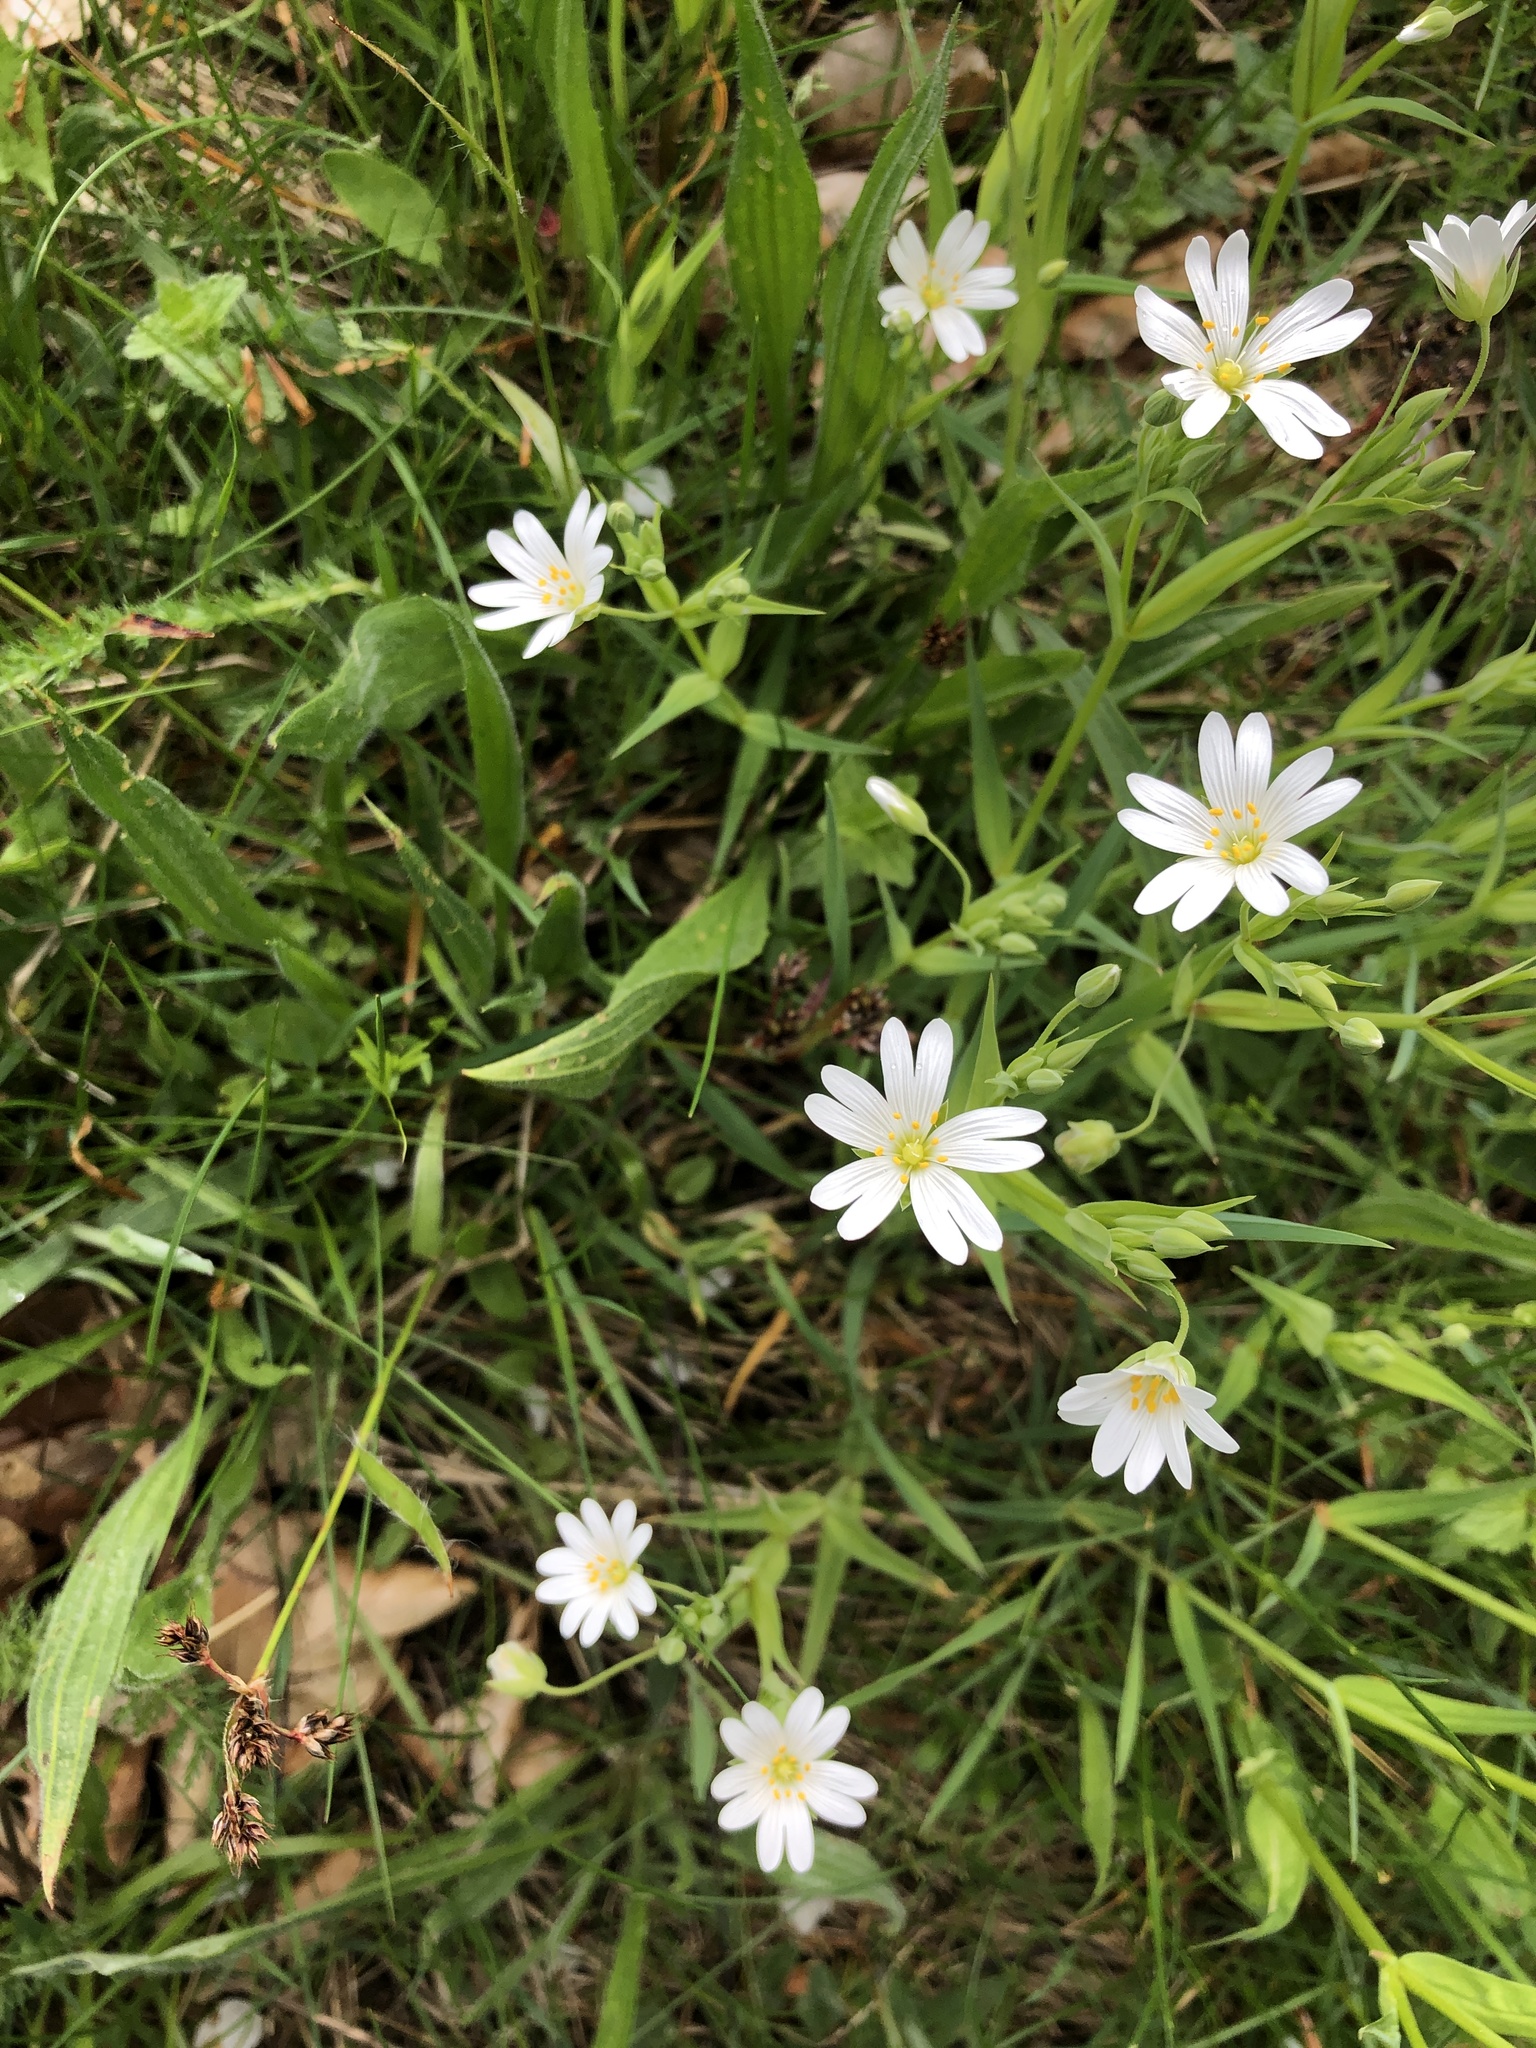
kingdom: Plantae
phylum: Tracheophyta
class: Magnoliopsida
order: Caryophyllales
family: Caryophyllaceae
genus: Rabelera
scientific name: Rabelera holostea
